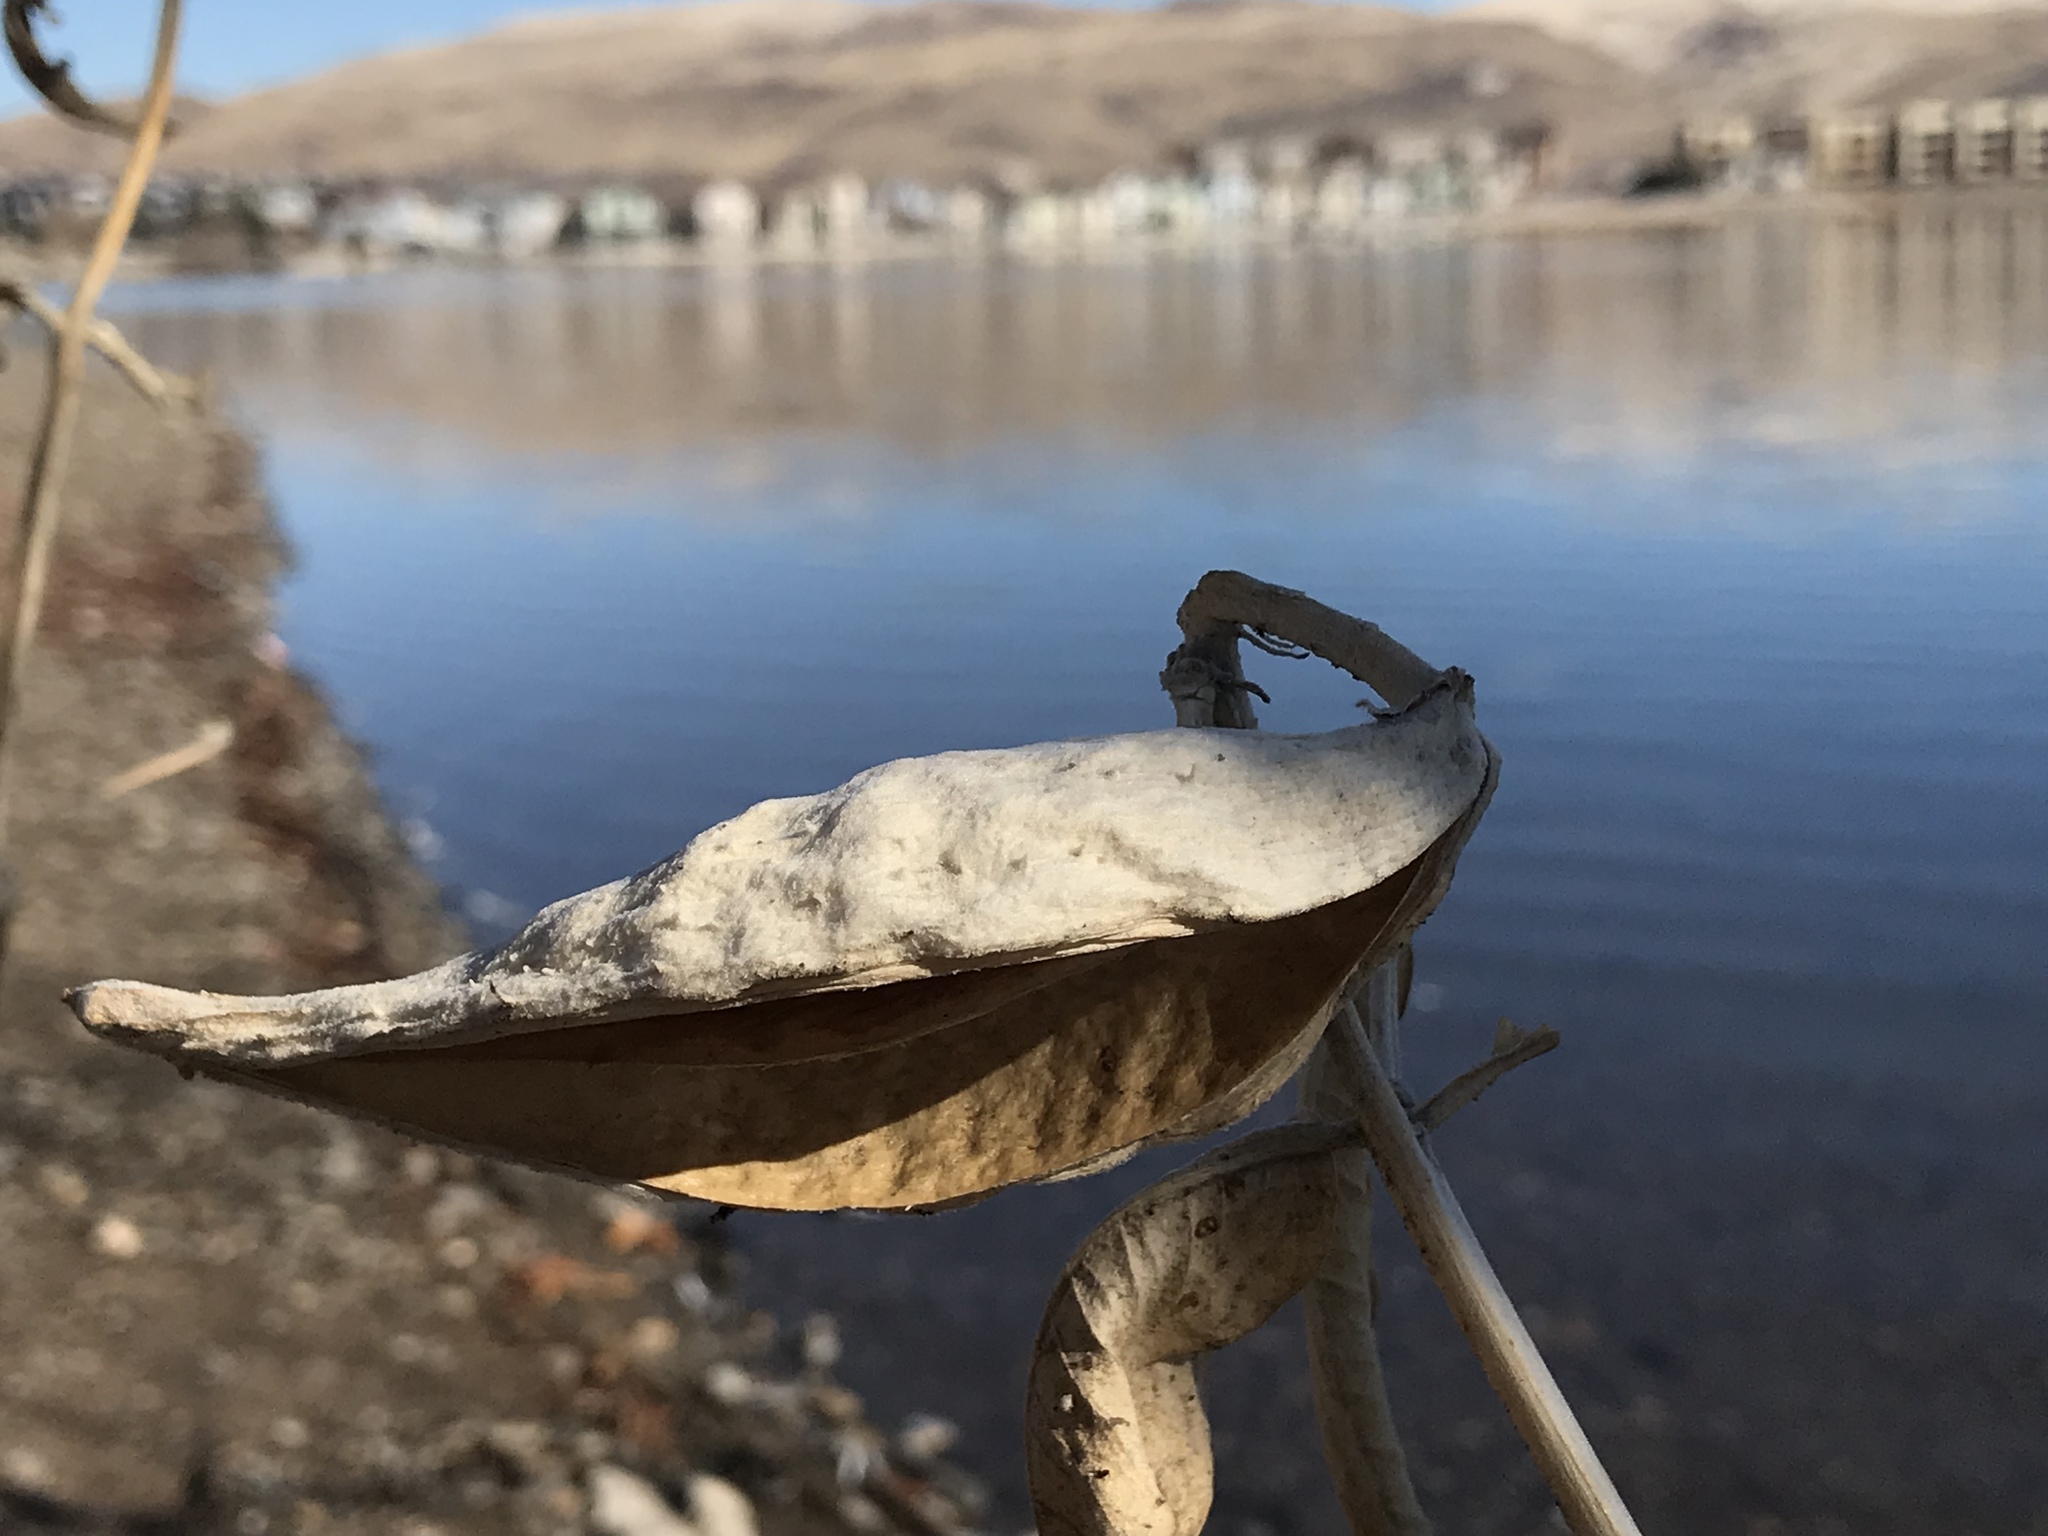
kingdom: Plantae
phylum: Tracheophyta
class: Magnoliopsida
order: Gentianales
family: Apocynaceae
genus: Asclepias
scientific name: Asclepias speciosa
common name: Showy milkweed
